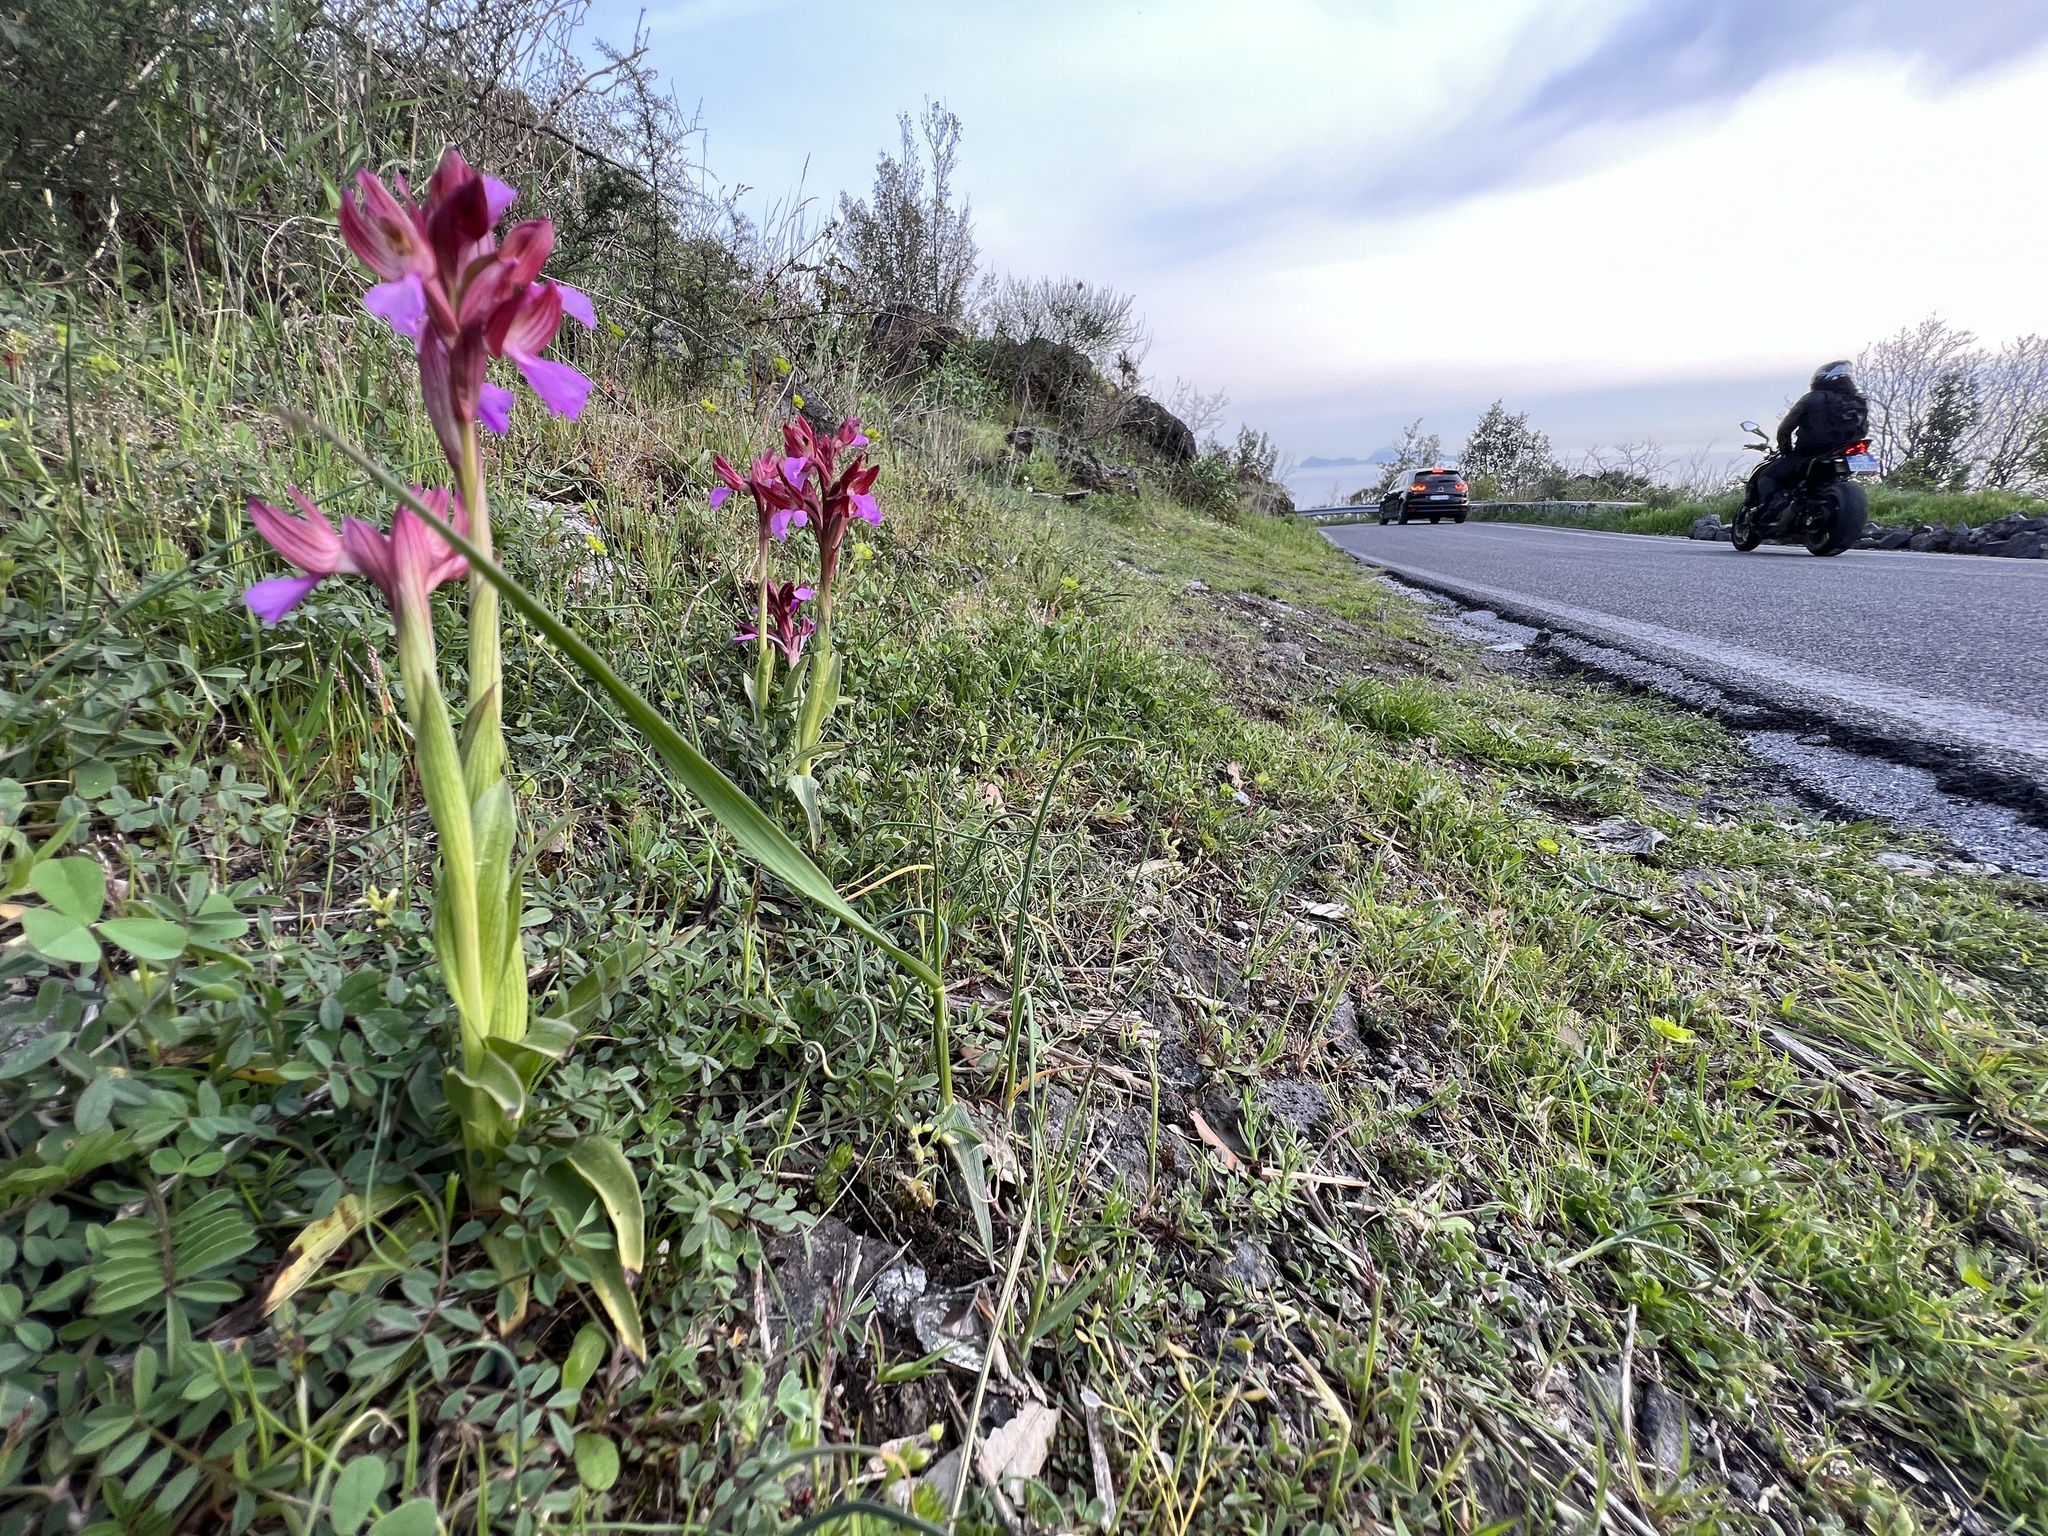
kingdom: Plantae
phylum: Tracheophyta
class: Liliopsida
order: Asparagales
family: Orchidaceae
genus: Anacamptis
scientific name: Anacamptis papilionacea
